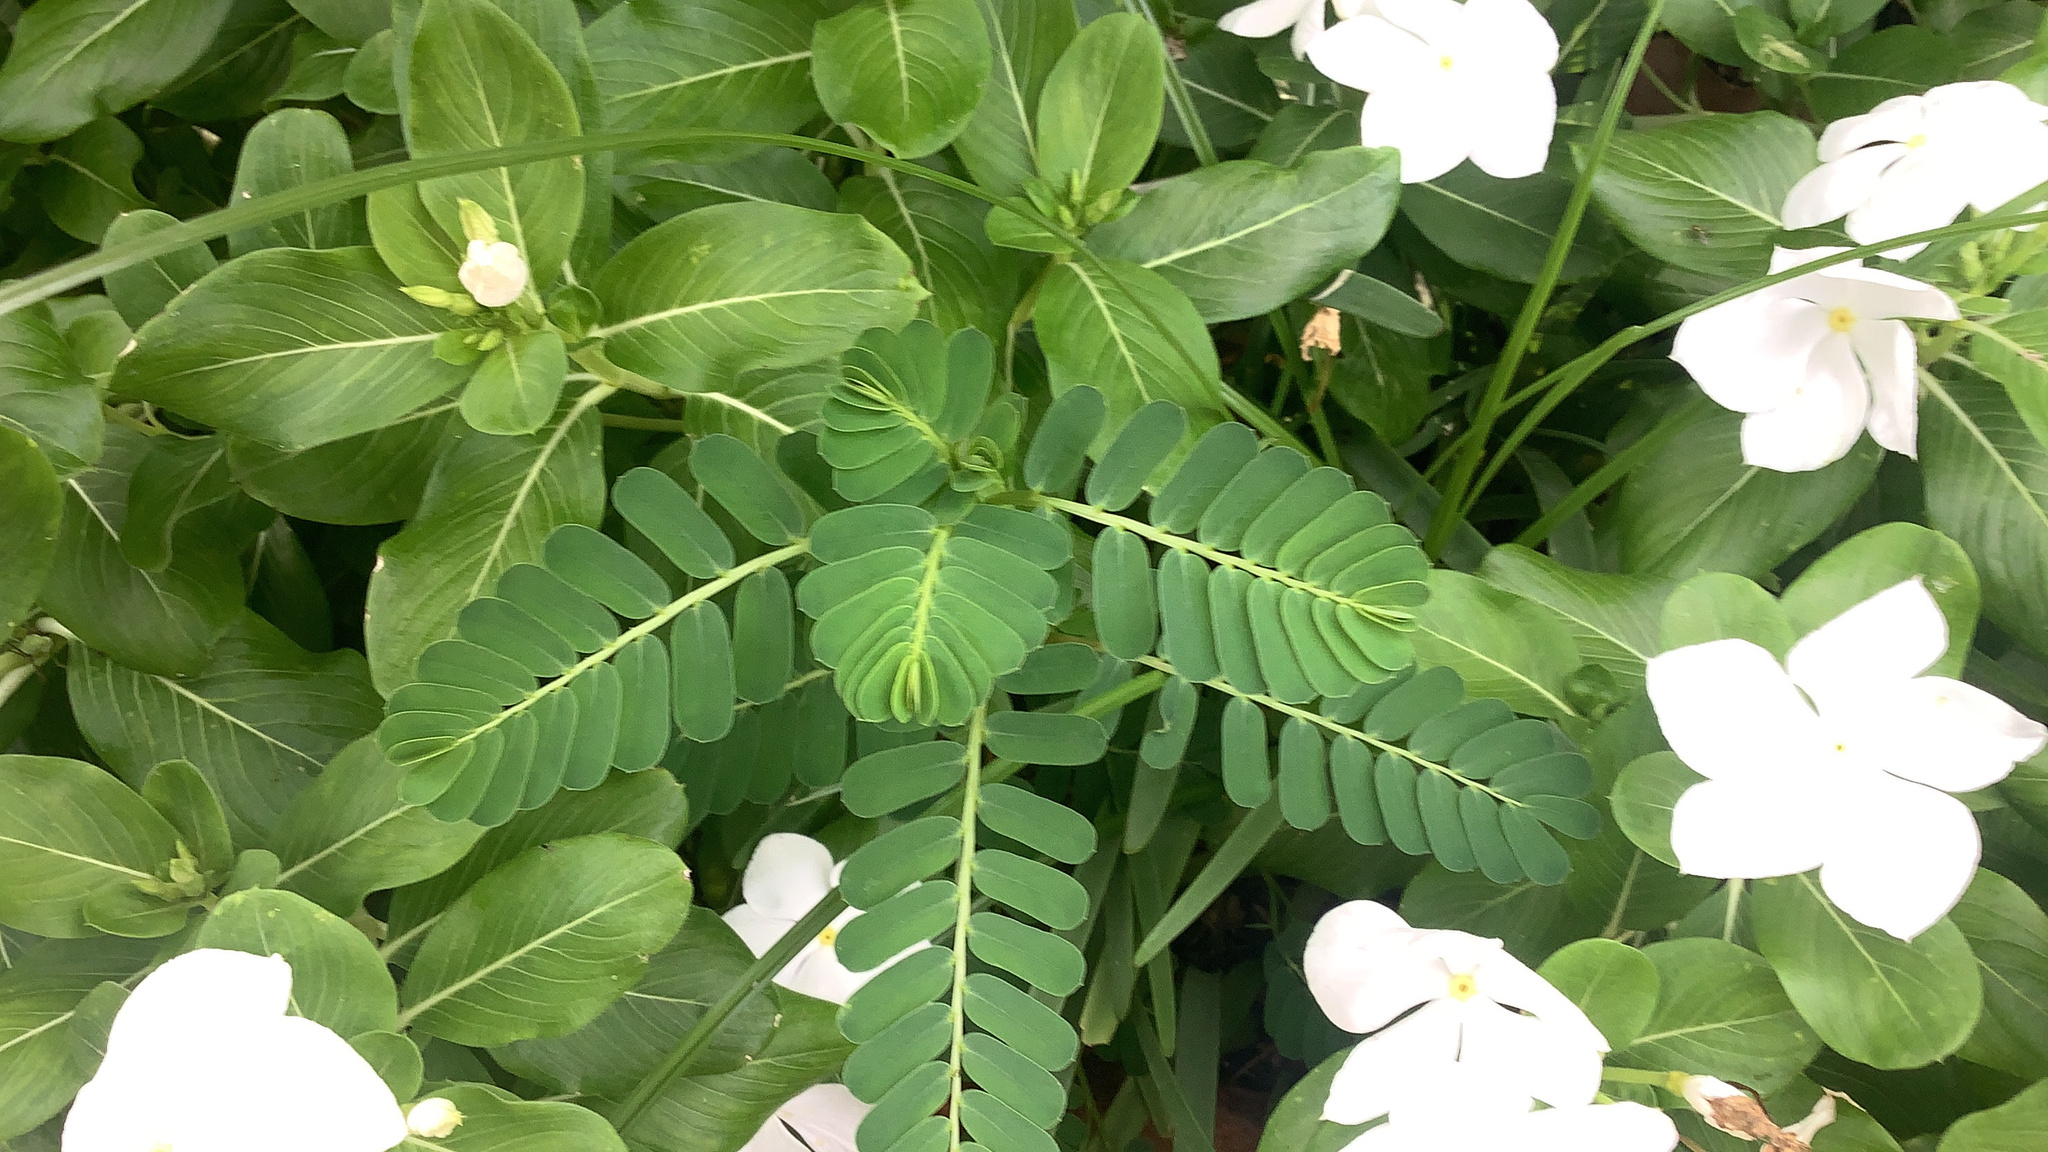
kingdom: Plantae
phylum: Tracheophyta
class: Magnoliopsida
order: Malpighiales
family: Phyllanthaceae
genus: Phyllanthus
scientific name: Phyllanthus urinaria
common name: Chamber bitter
